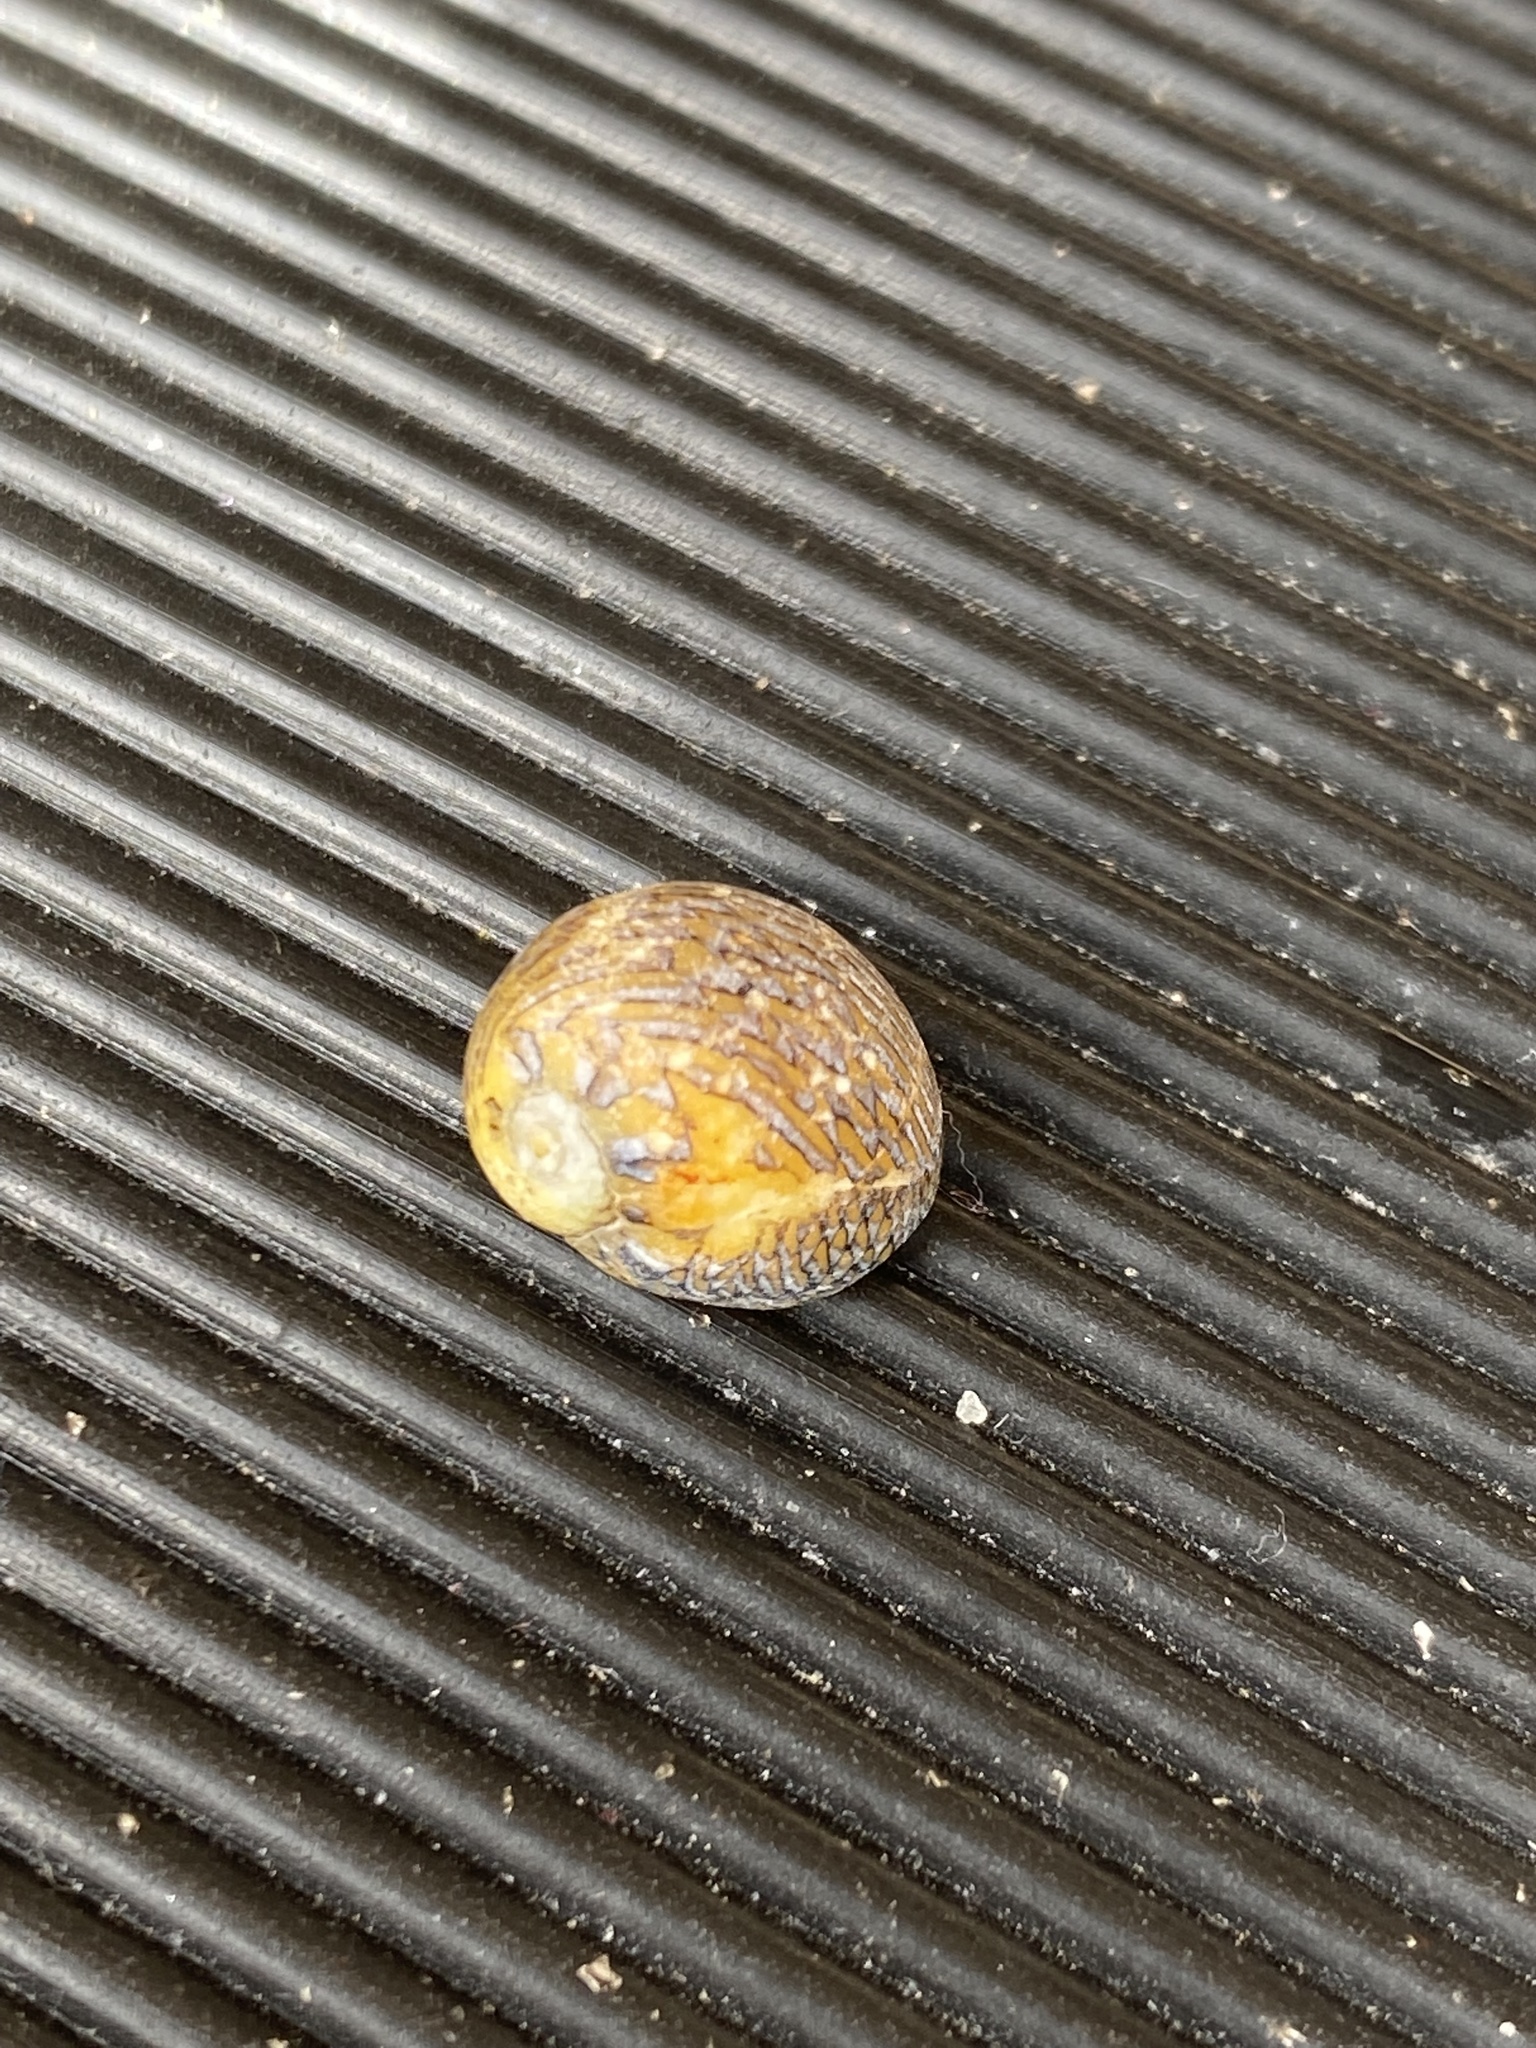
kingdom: Animalia
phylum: Mollusca
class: Gastropoda
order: Cycloneritida
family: Neritidae
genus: Vitta
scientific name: Vitta luteofasciata
